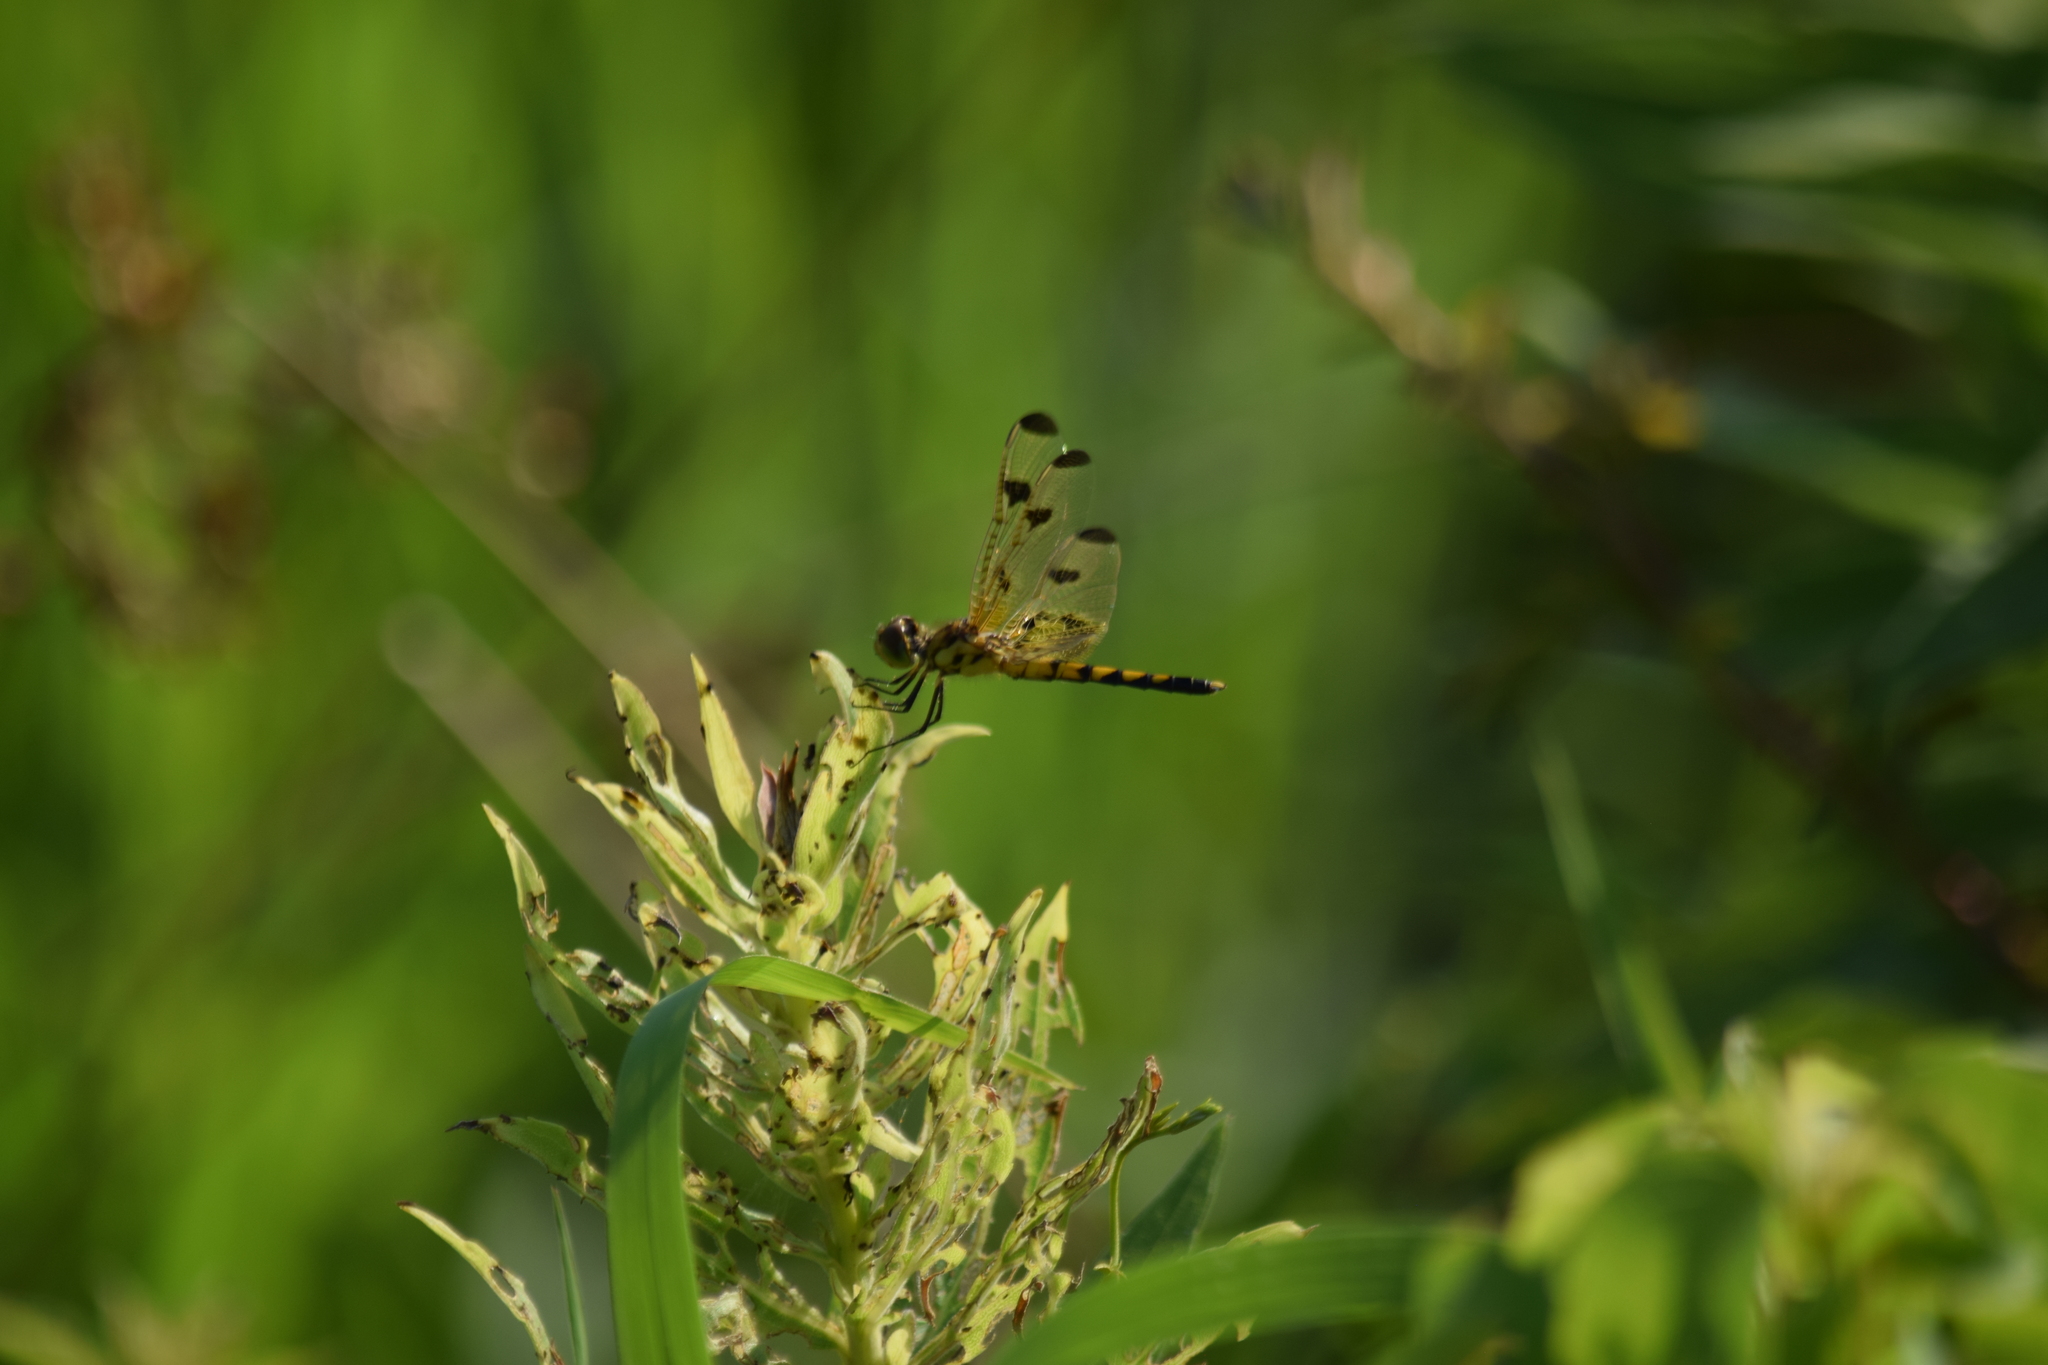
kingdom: Animalia
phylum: Arthropoda
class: Insecta
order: Odonata
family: Libellulidae
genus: Celithemis
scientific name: Celithemis elisa
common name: Calico pennant
